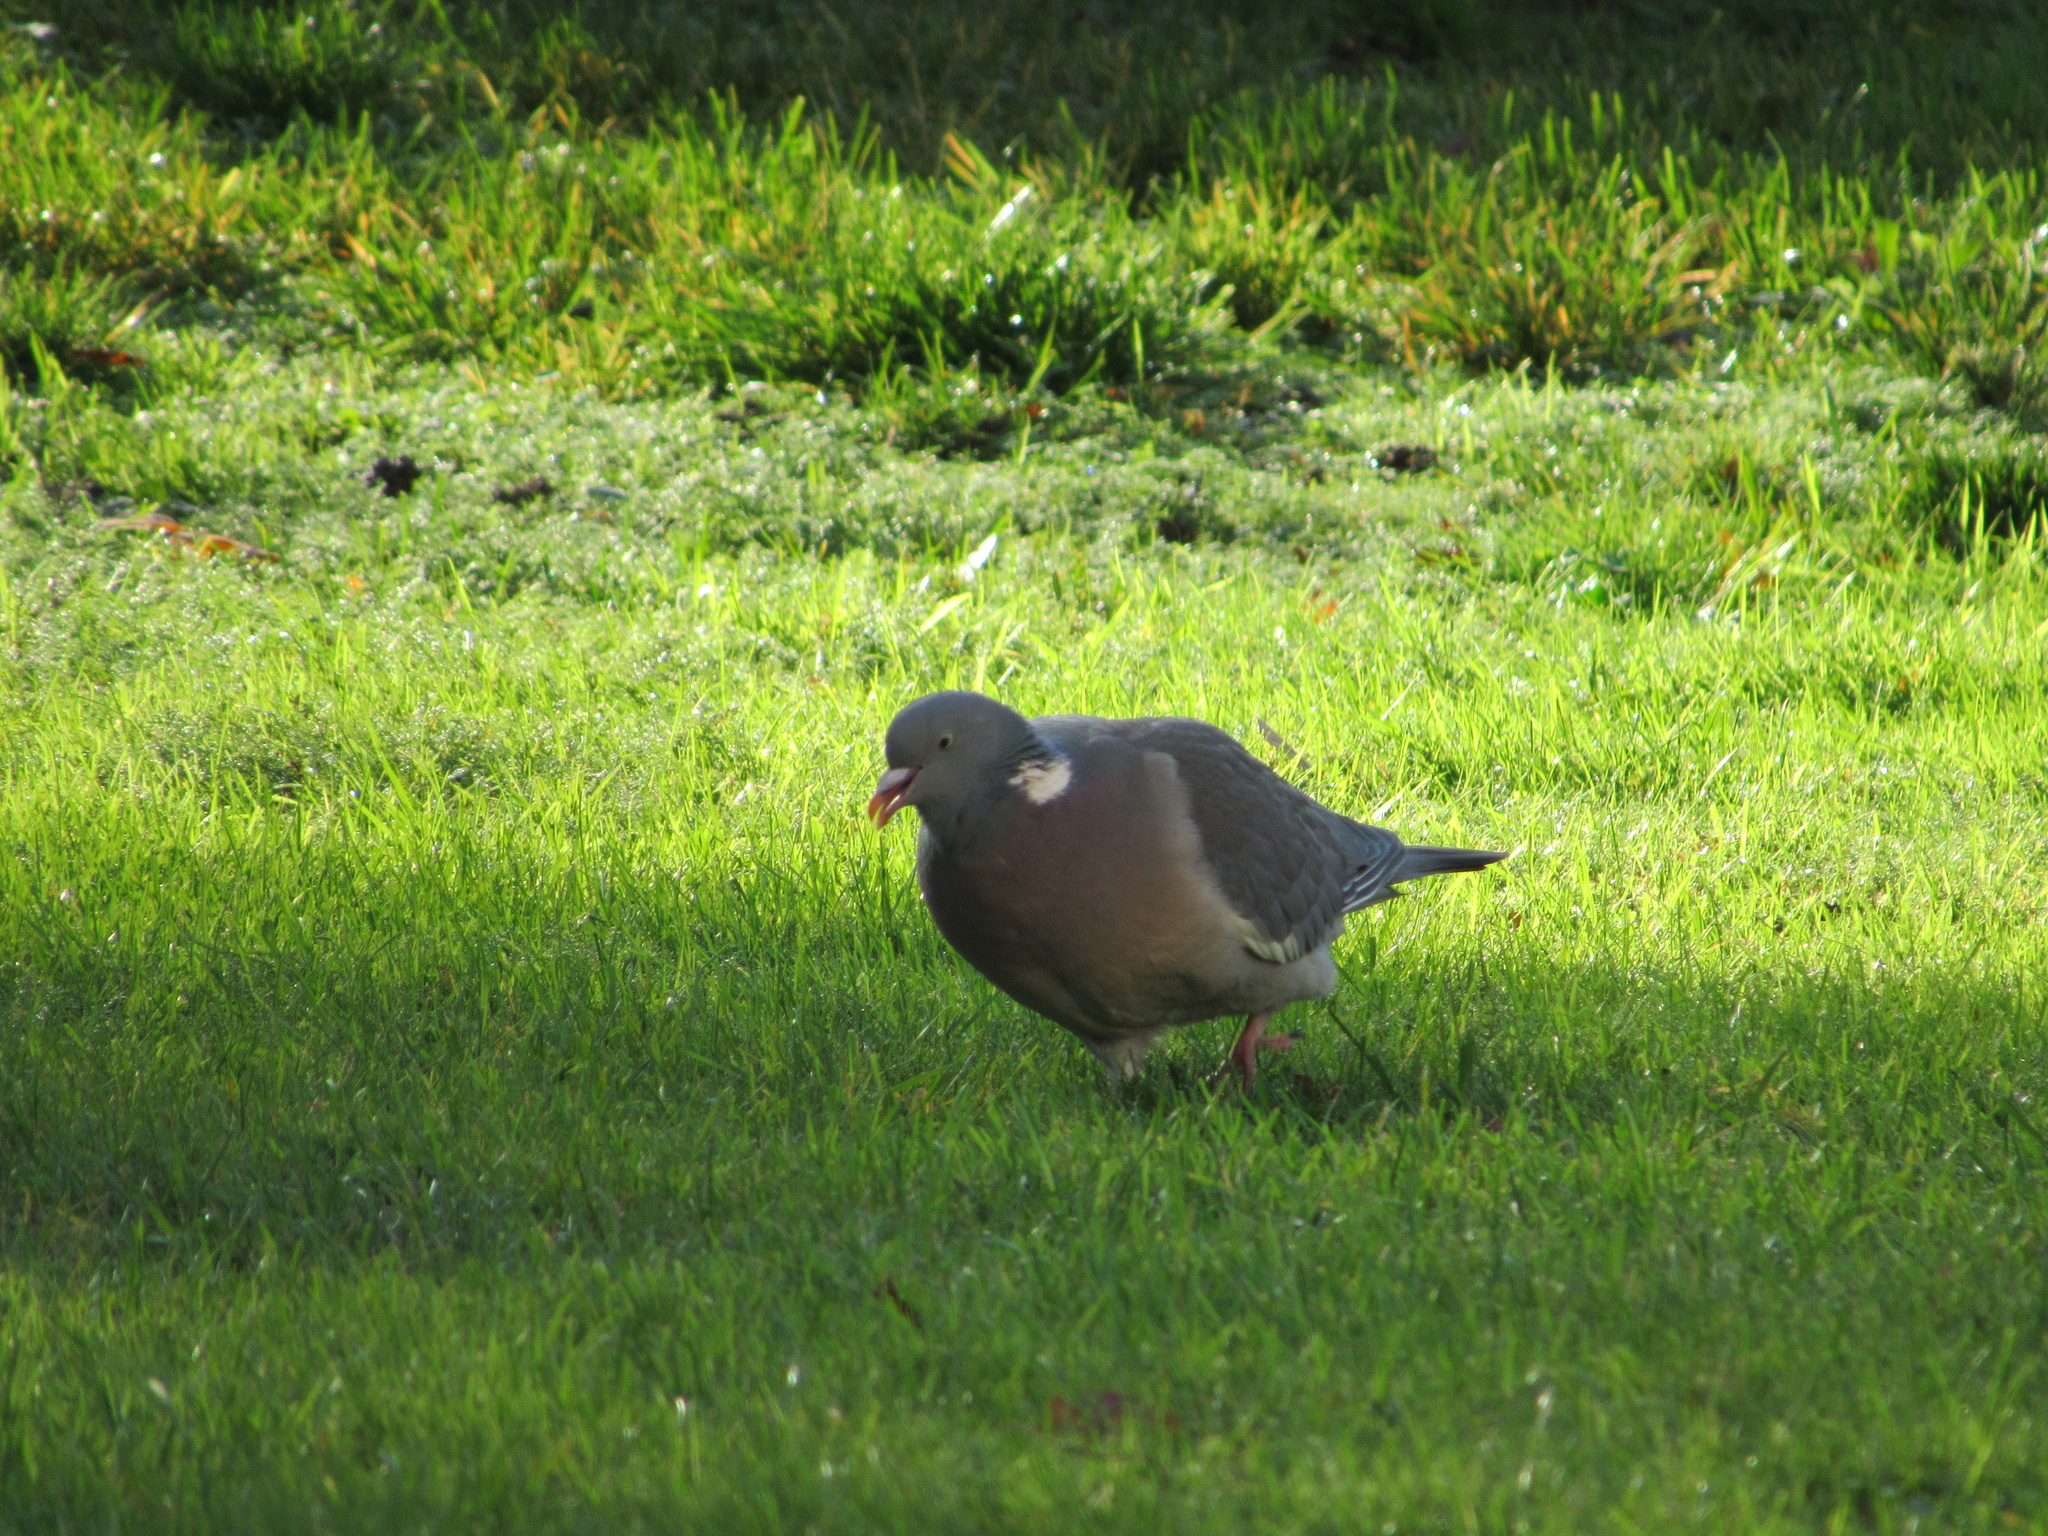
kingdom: Animalia
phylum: Chordata
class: Aves
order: Columbiformes
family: Columbidae
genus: Columba
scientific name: Columba palumbus
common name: Common wood pigeon
